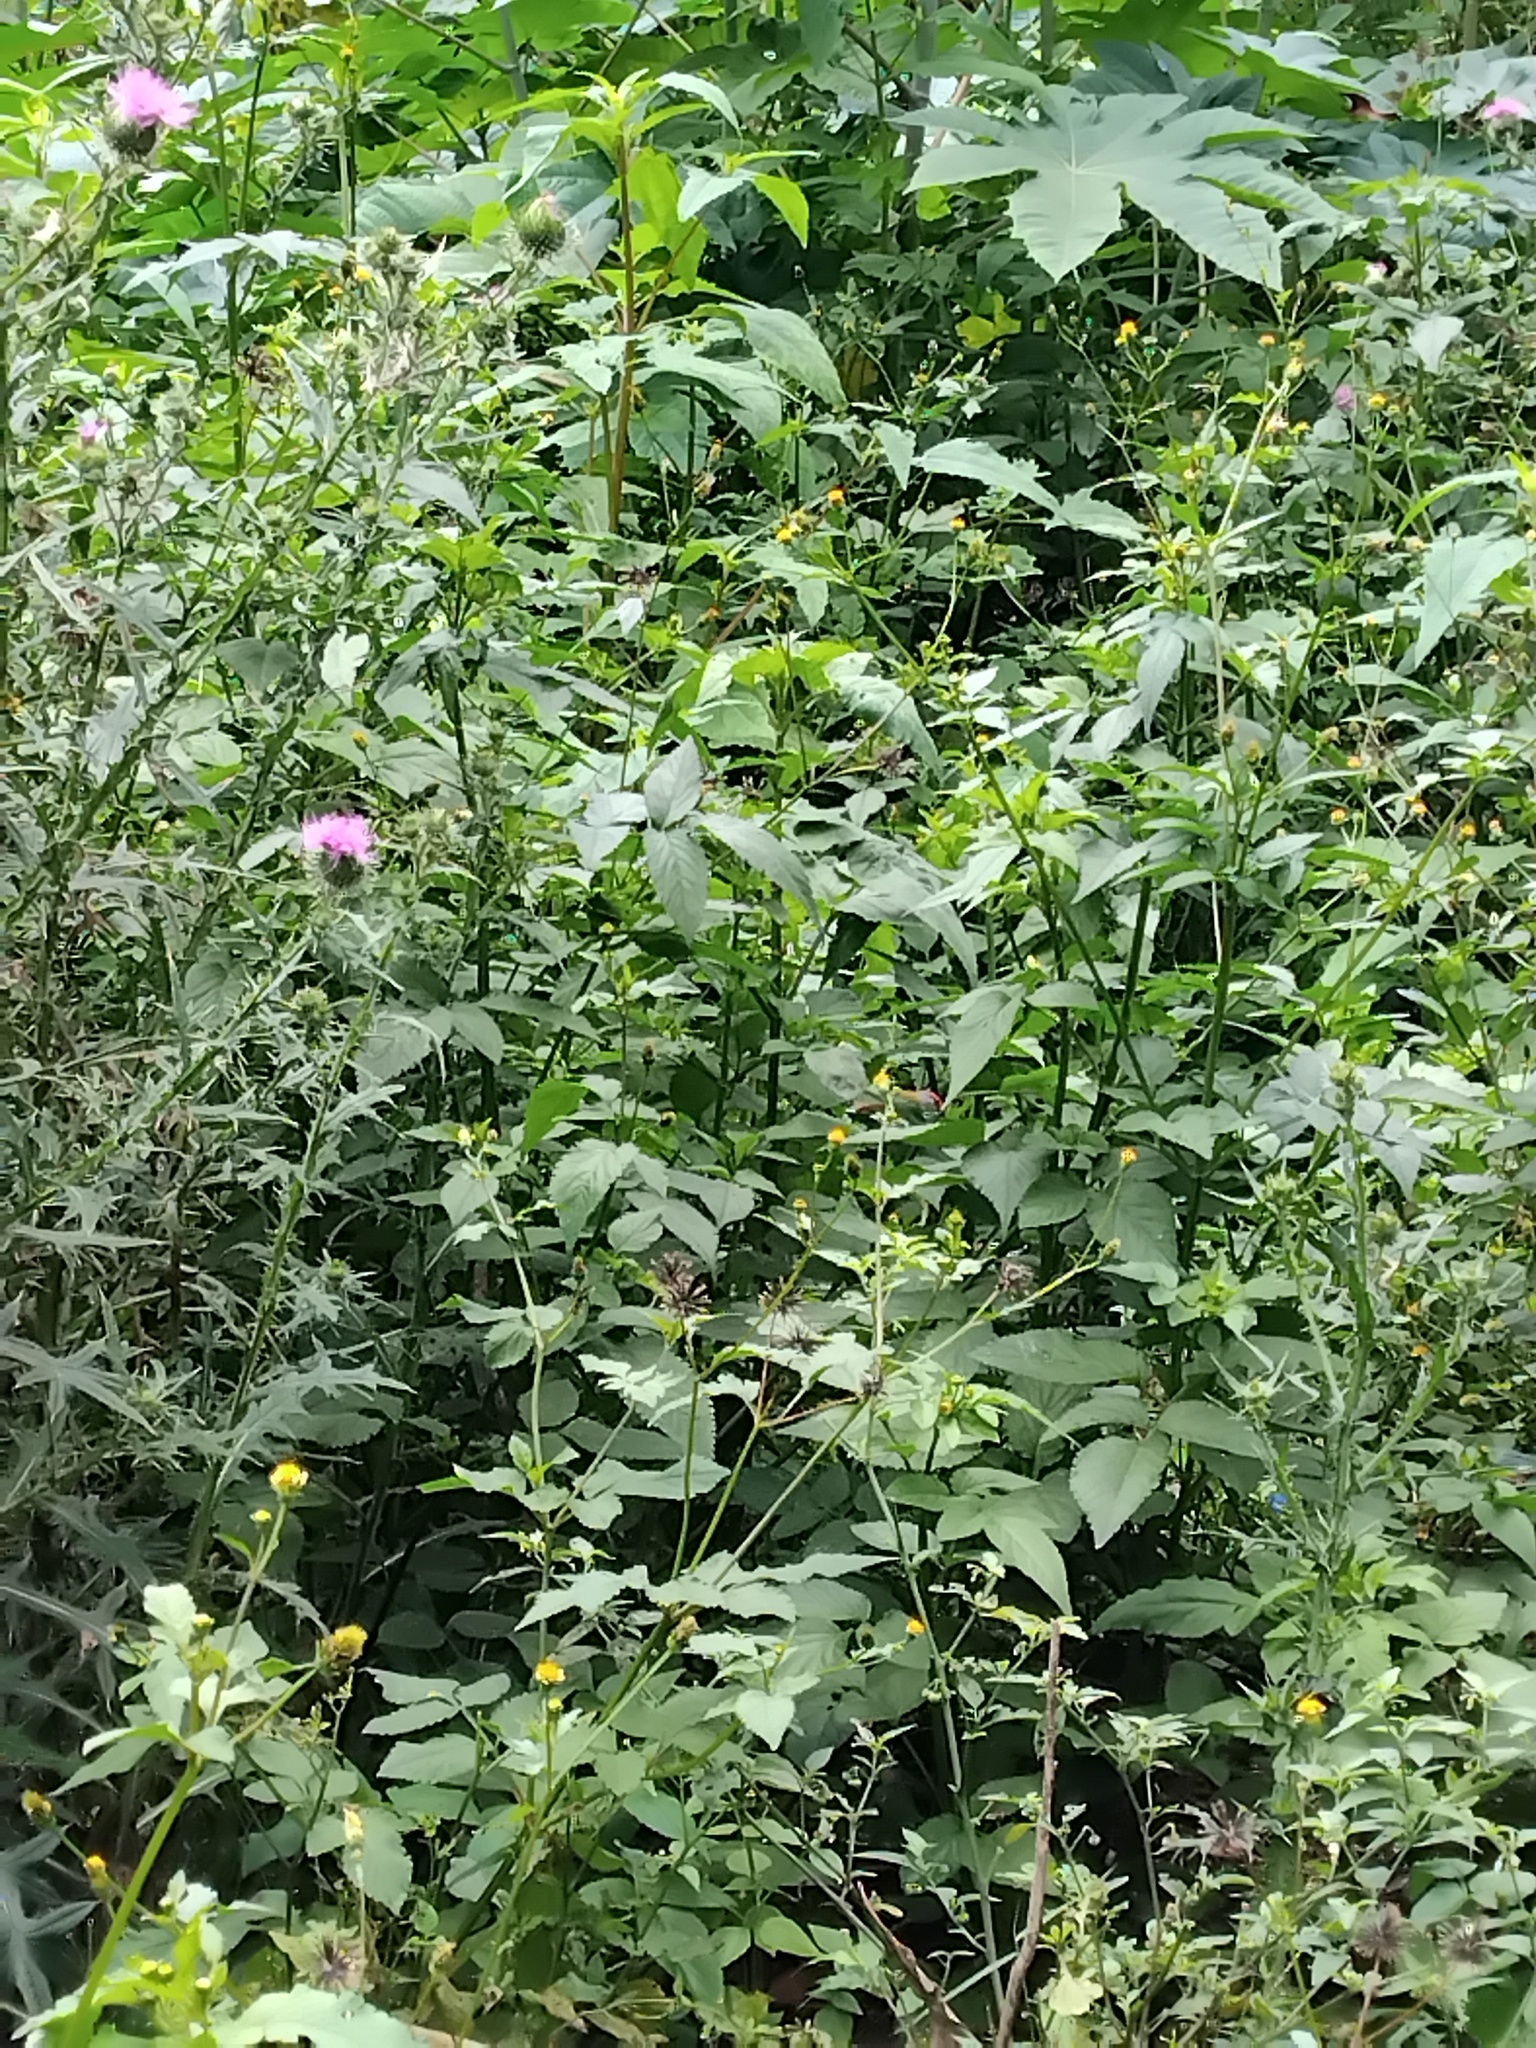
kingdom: Animalia
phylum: Chordata
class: Aves
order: Passeriformes
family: Estrildidae
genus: Neochmia
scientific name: Neochmia temporalis
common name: Red-browed finch
